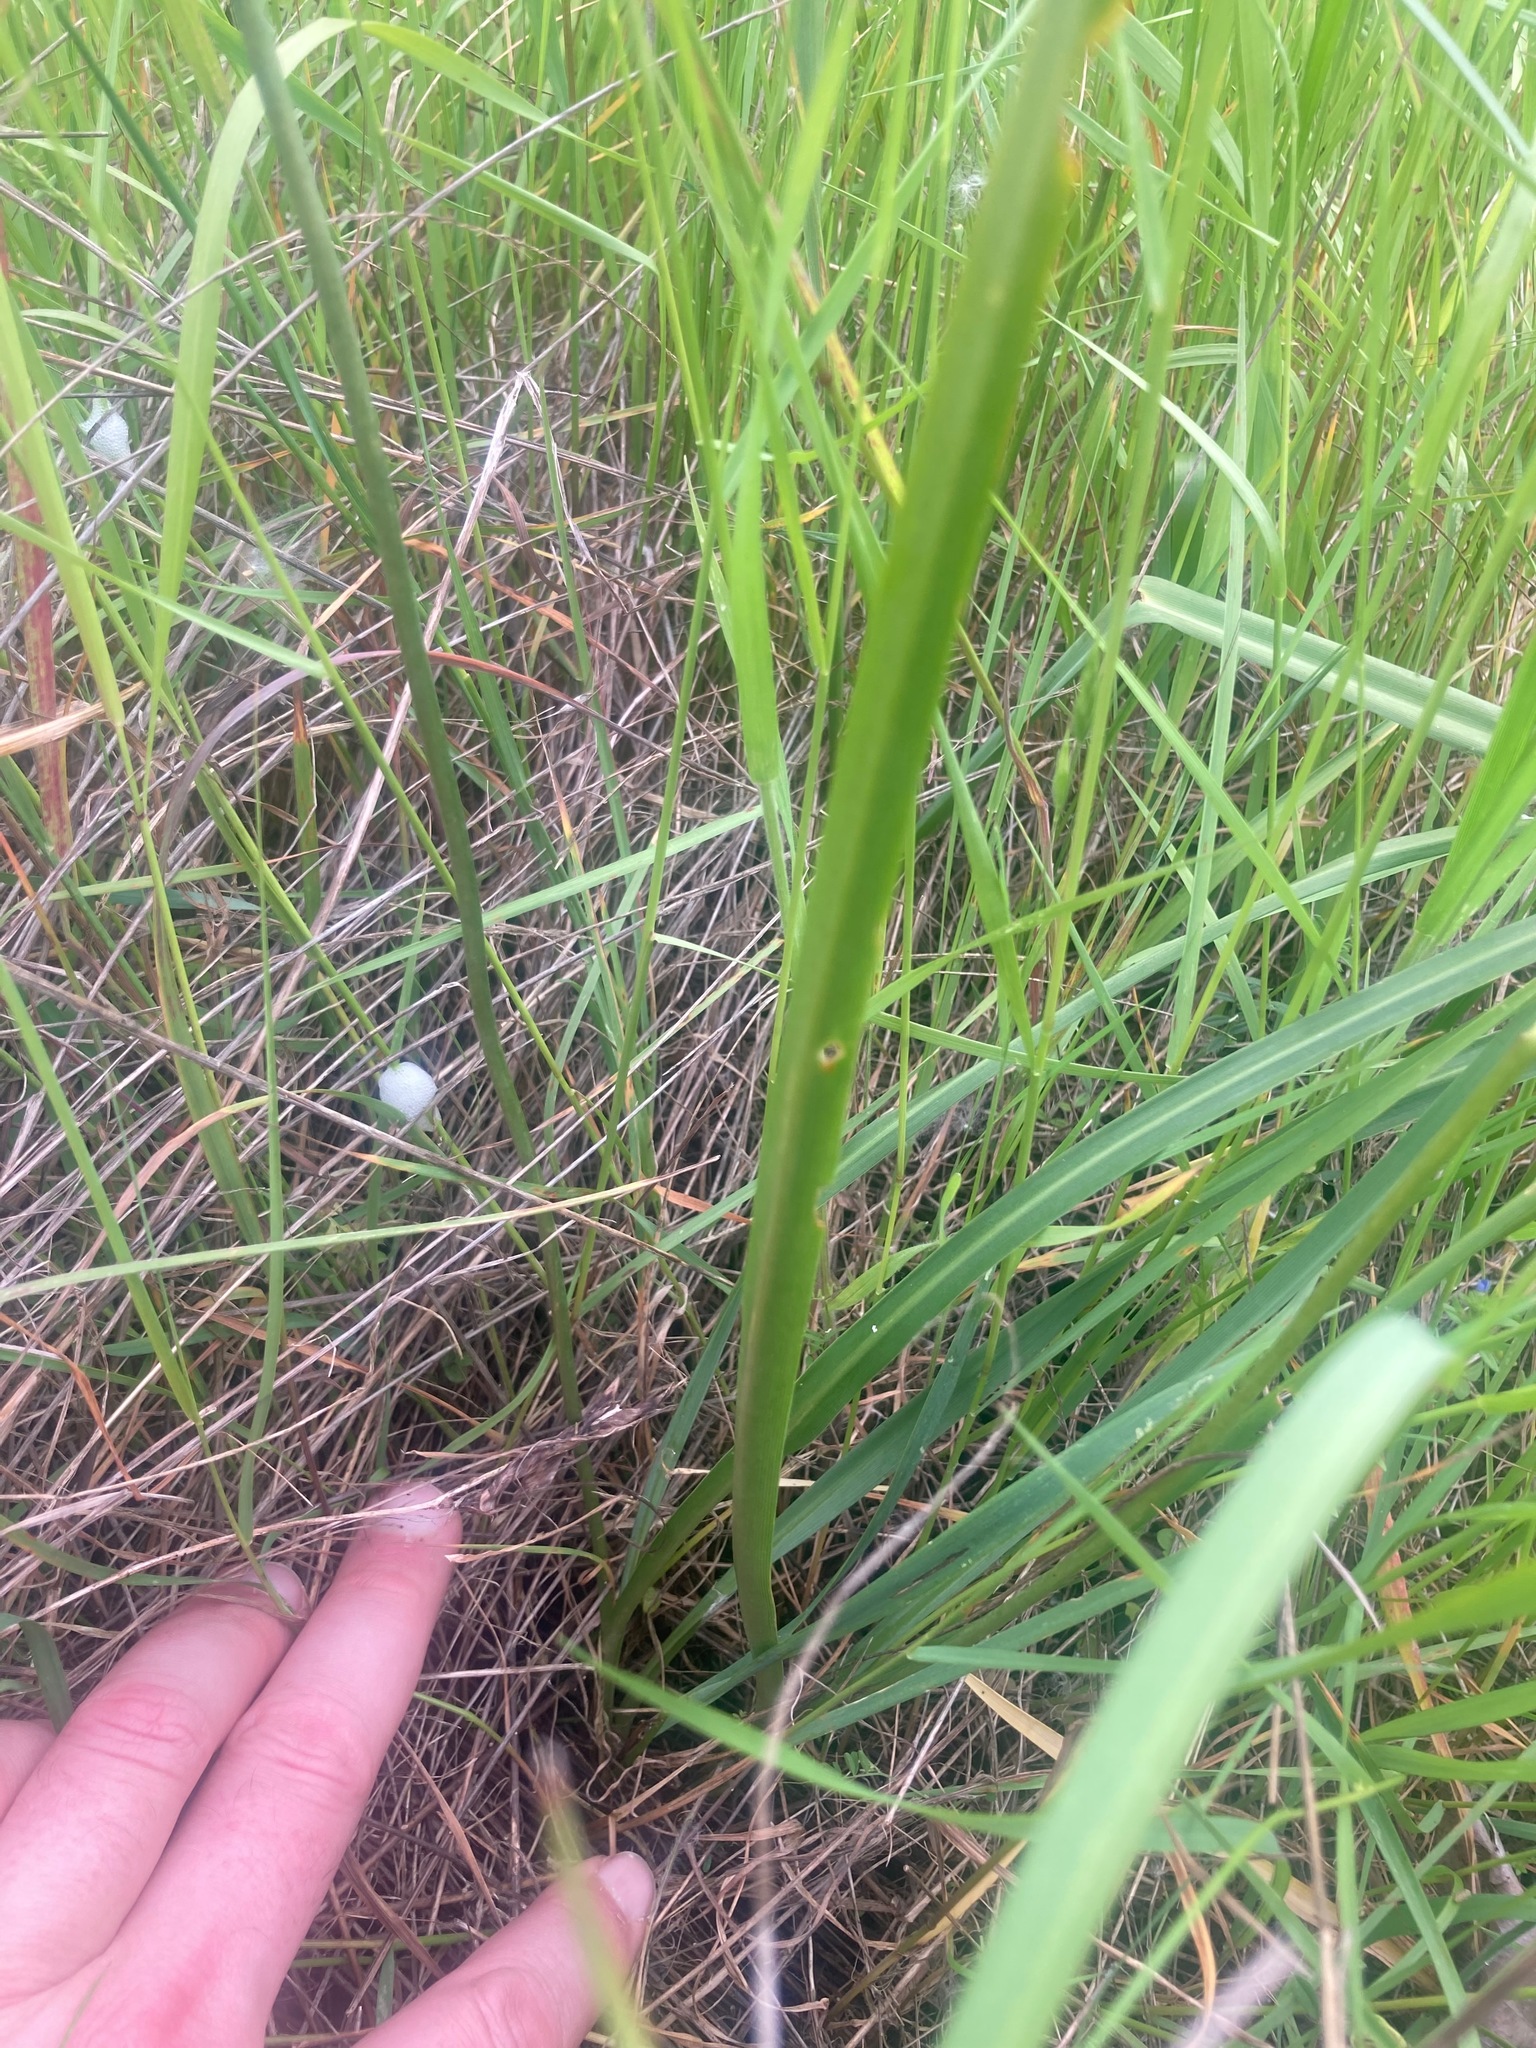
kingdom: Plantae
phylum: Tracheophyta
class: Liliopsida
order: Asparagales
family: Asparagaceae
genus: Camassia
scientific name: Camassia quamash
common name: Common camas
